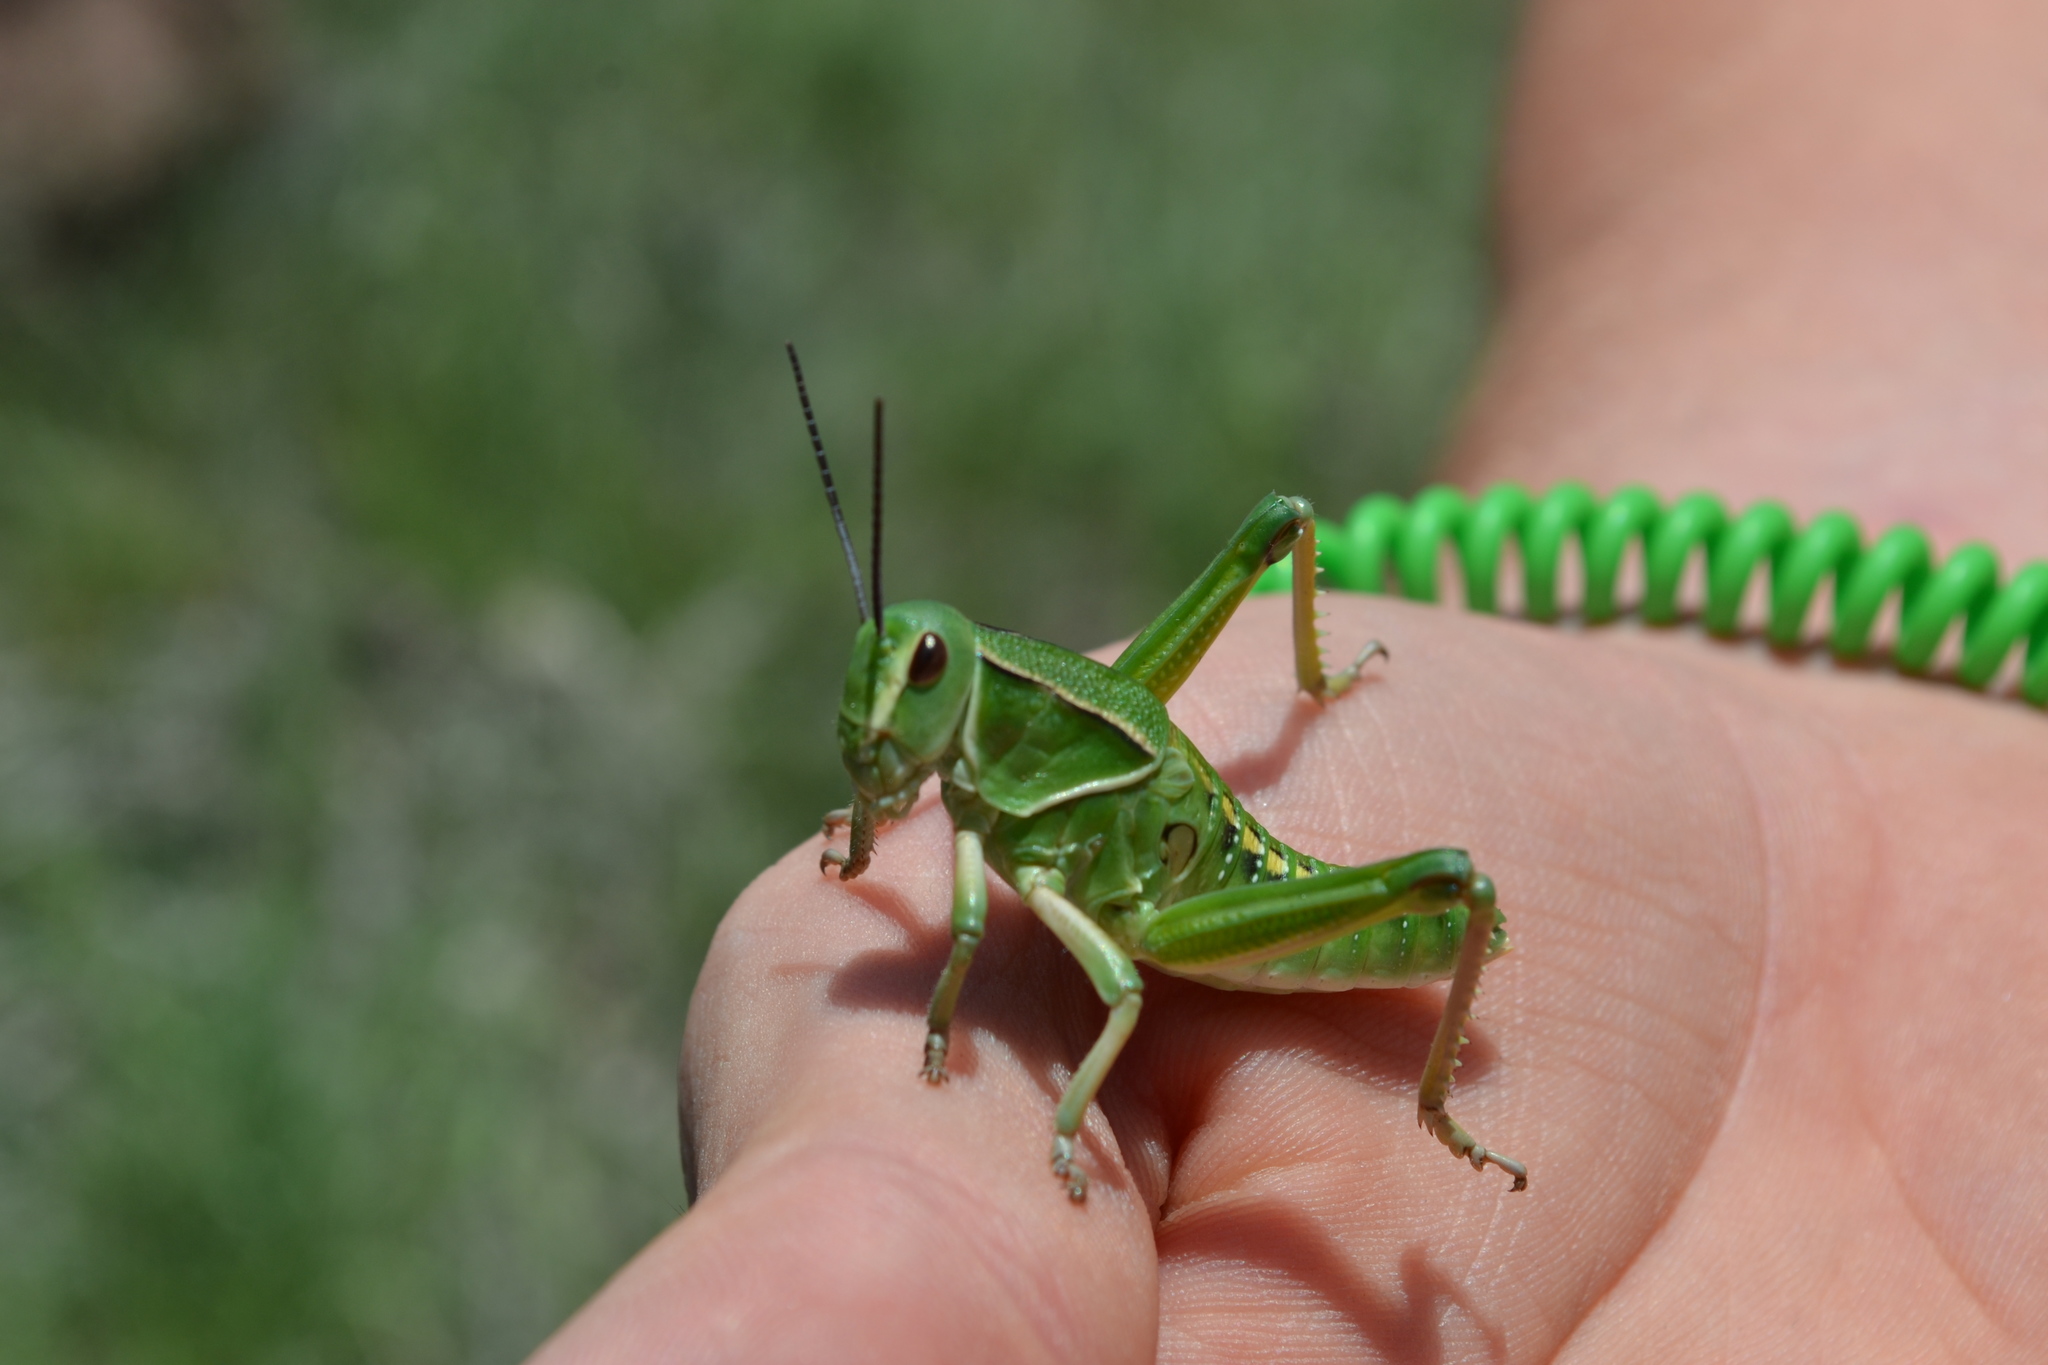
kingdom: Animalia
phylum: Arthropoda
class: Insecta
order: Orthoptera
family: Romaleidae
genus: Brachystola
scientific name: Brachystola magna
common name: Plains lubber grasshopper
